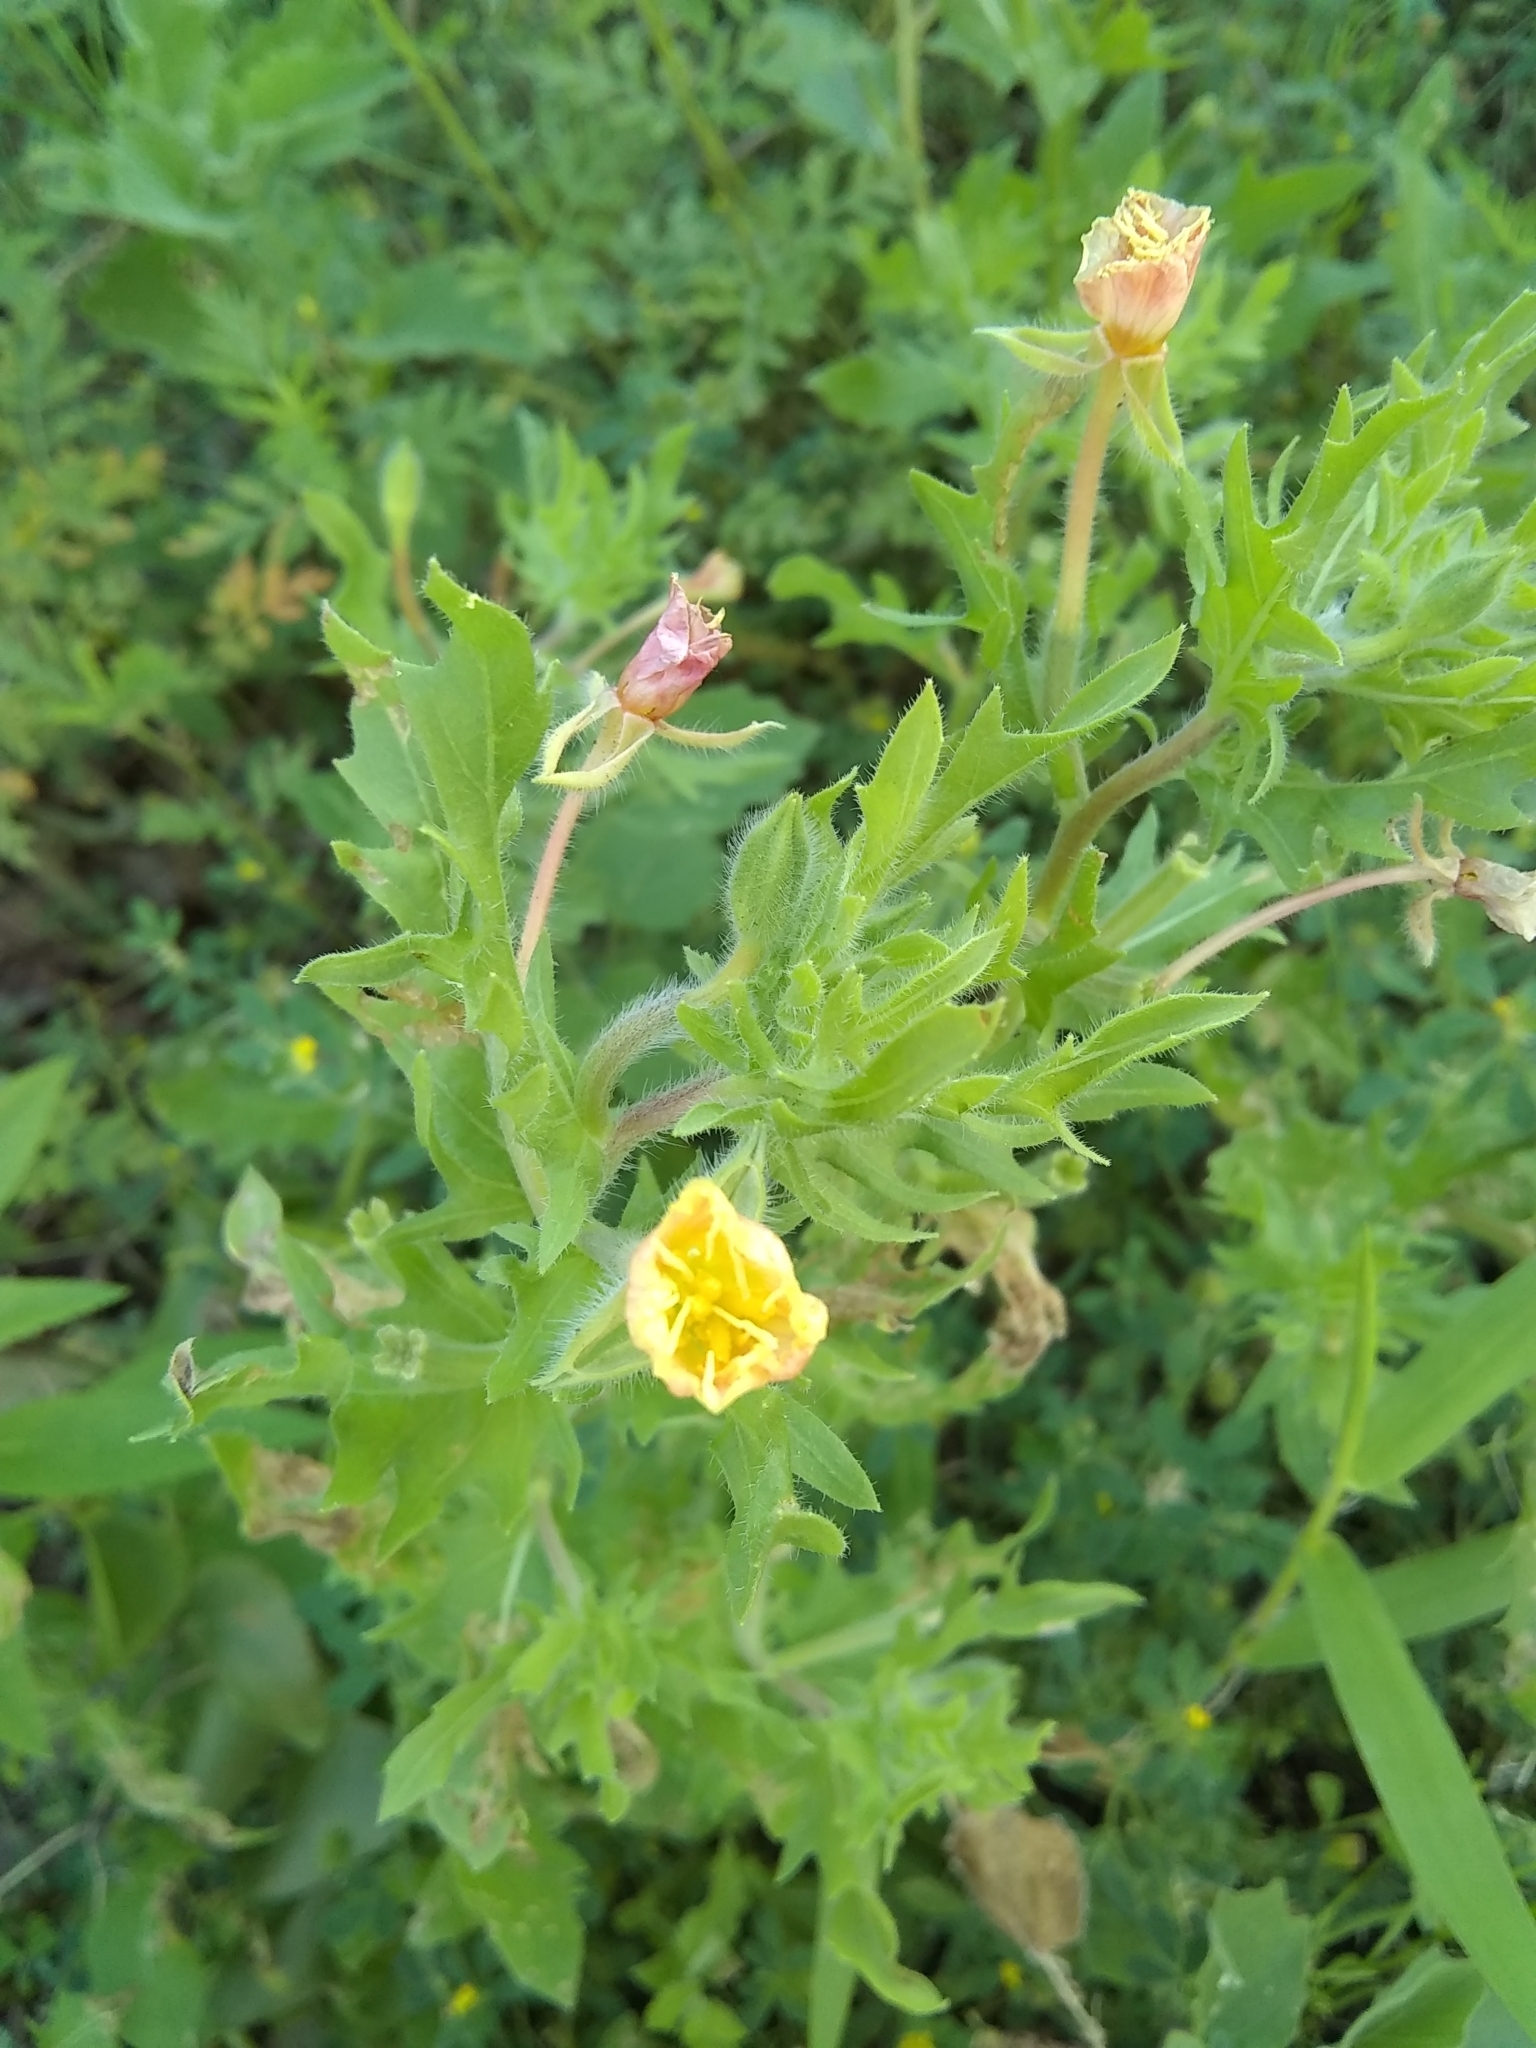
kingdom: Plantae
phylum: Tracheophyta
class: Magnoliopsida
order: Myrtales
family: Onagraceae
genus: Oenothera
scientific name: Oenothera laciniata
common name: Cut-leaved evening-primrose
